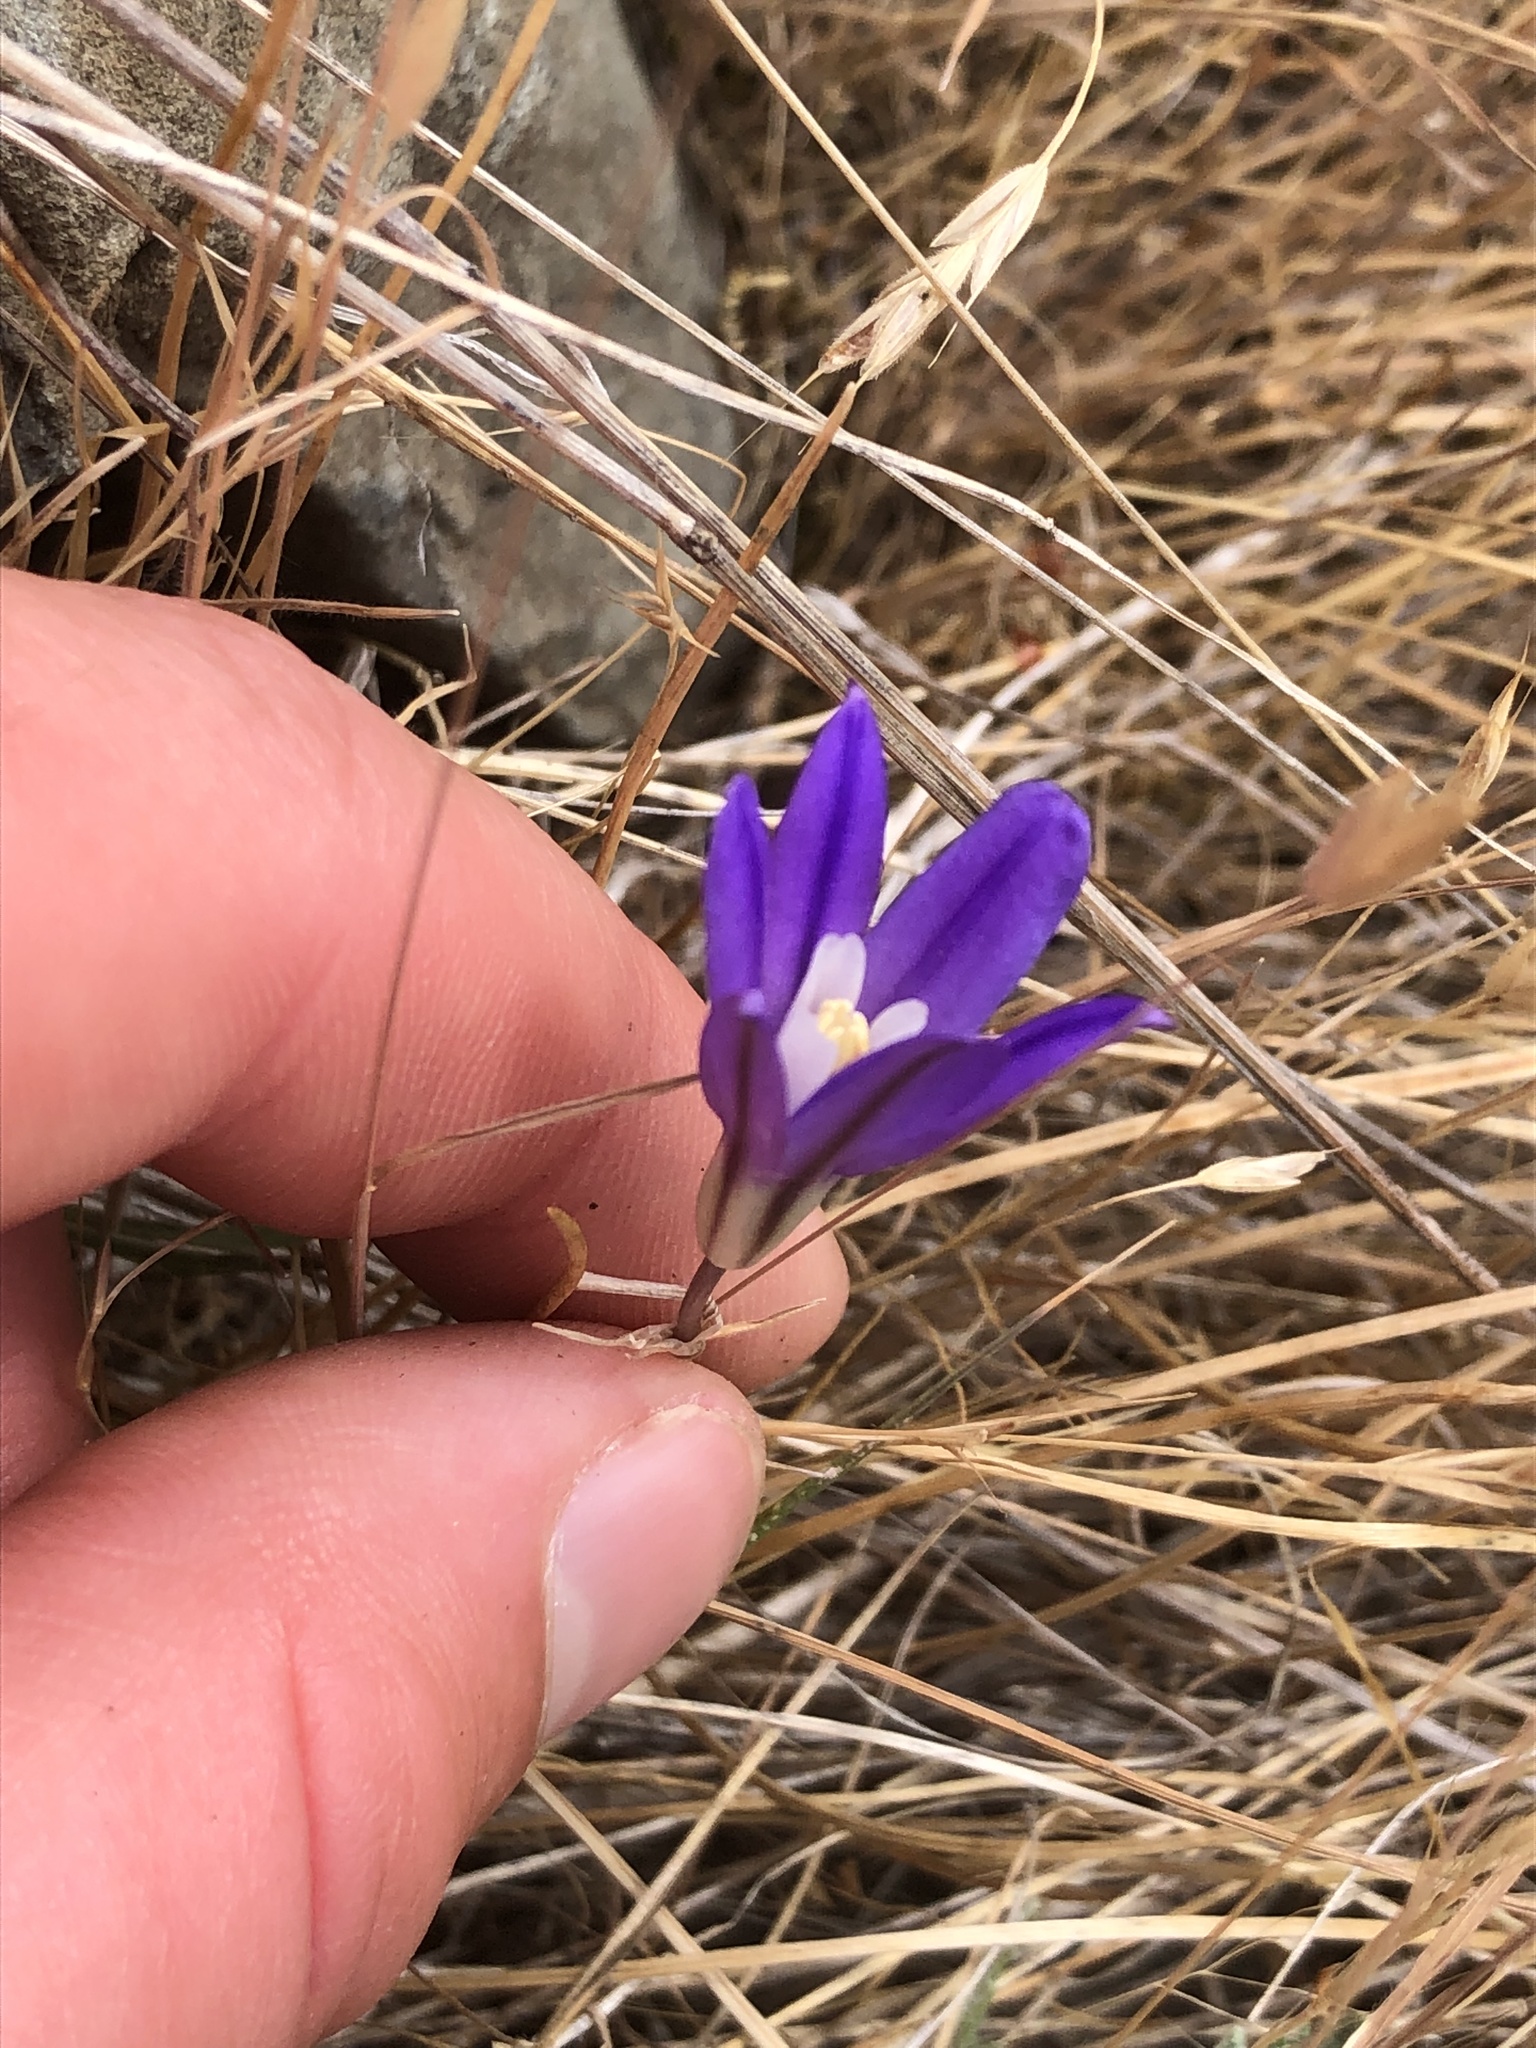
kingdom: Plantae
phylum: Tracheophyta
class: Liliopsida
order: Asparagales
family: Asparagaceae
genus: Brodiaea
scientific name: Brodiaea coronaria
